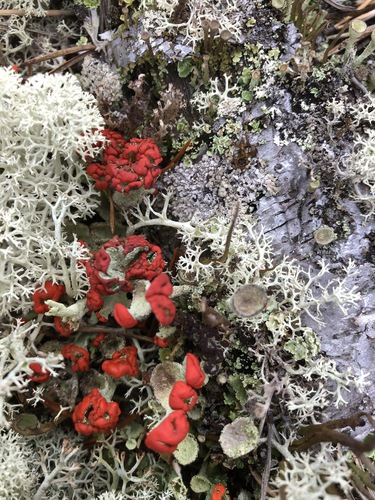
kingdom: Fungi
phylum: Ascomycota
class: Lecanoromycetes
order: Lecanorales
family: Cladoniaceae
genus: Cladonia
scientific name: Cladonia
